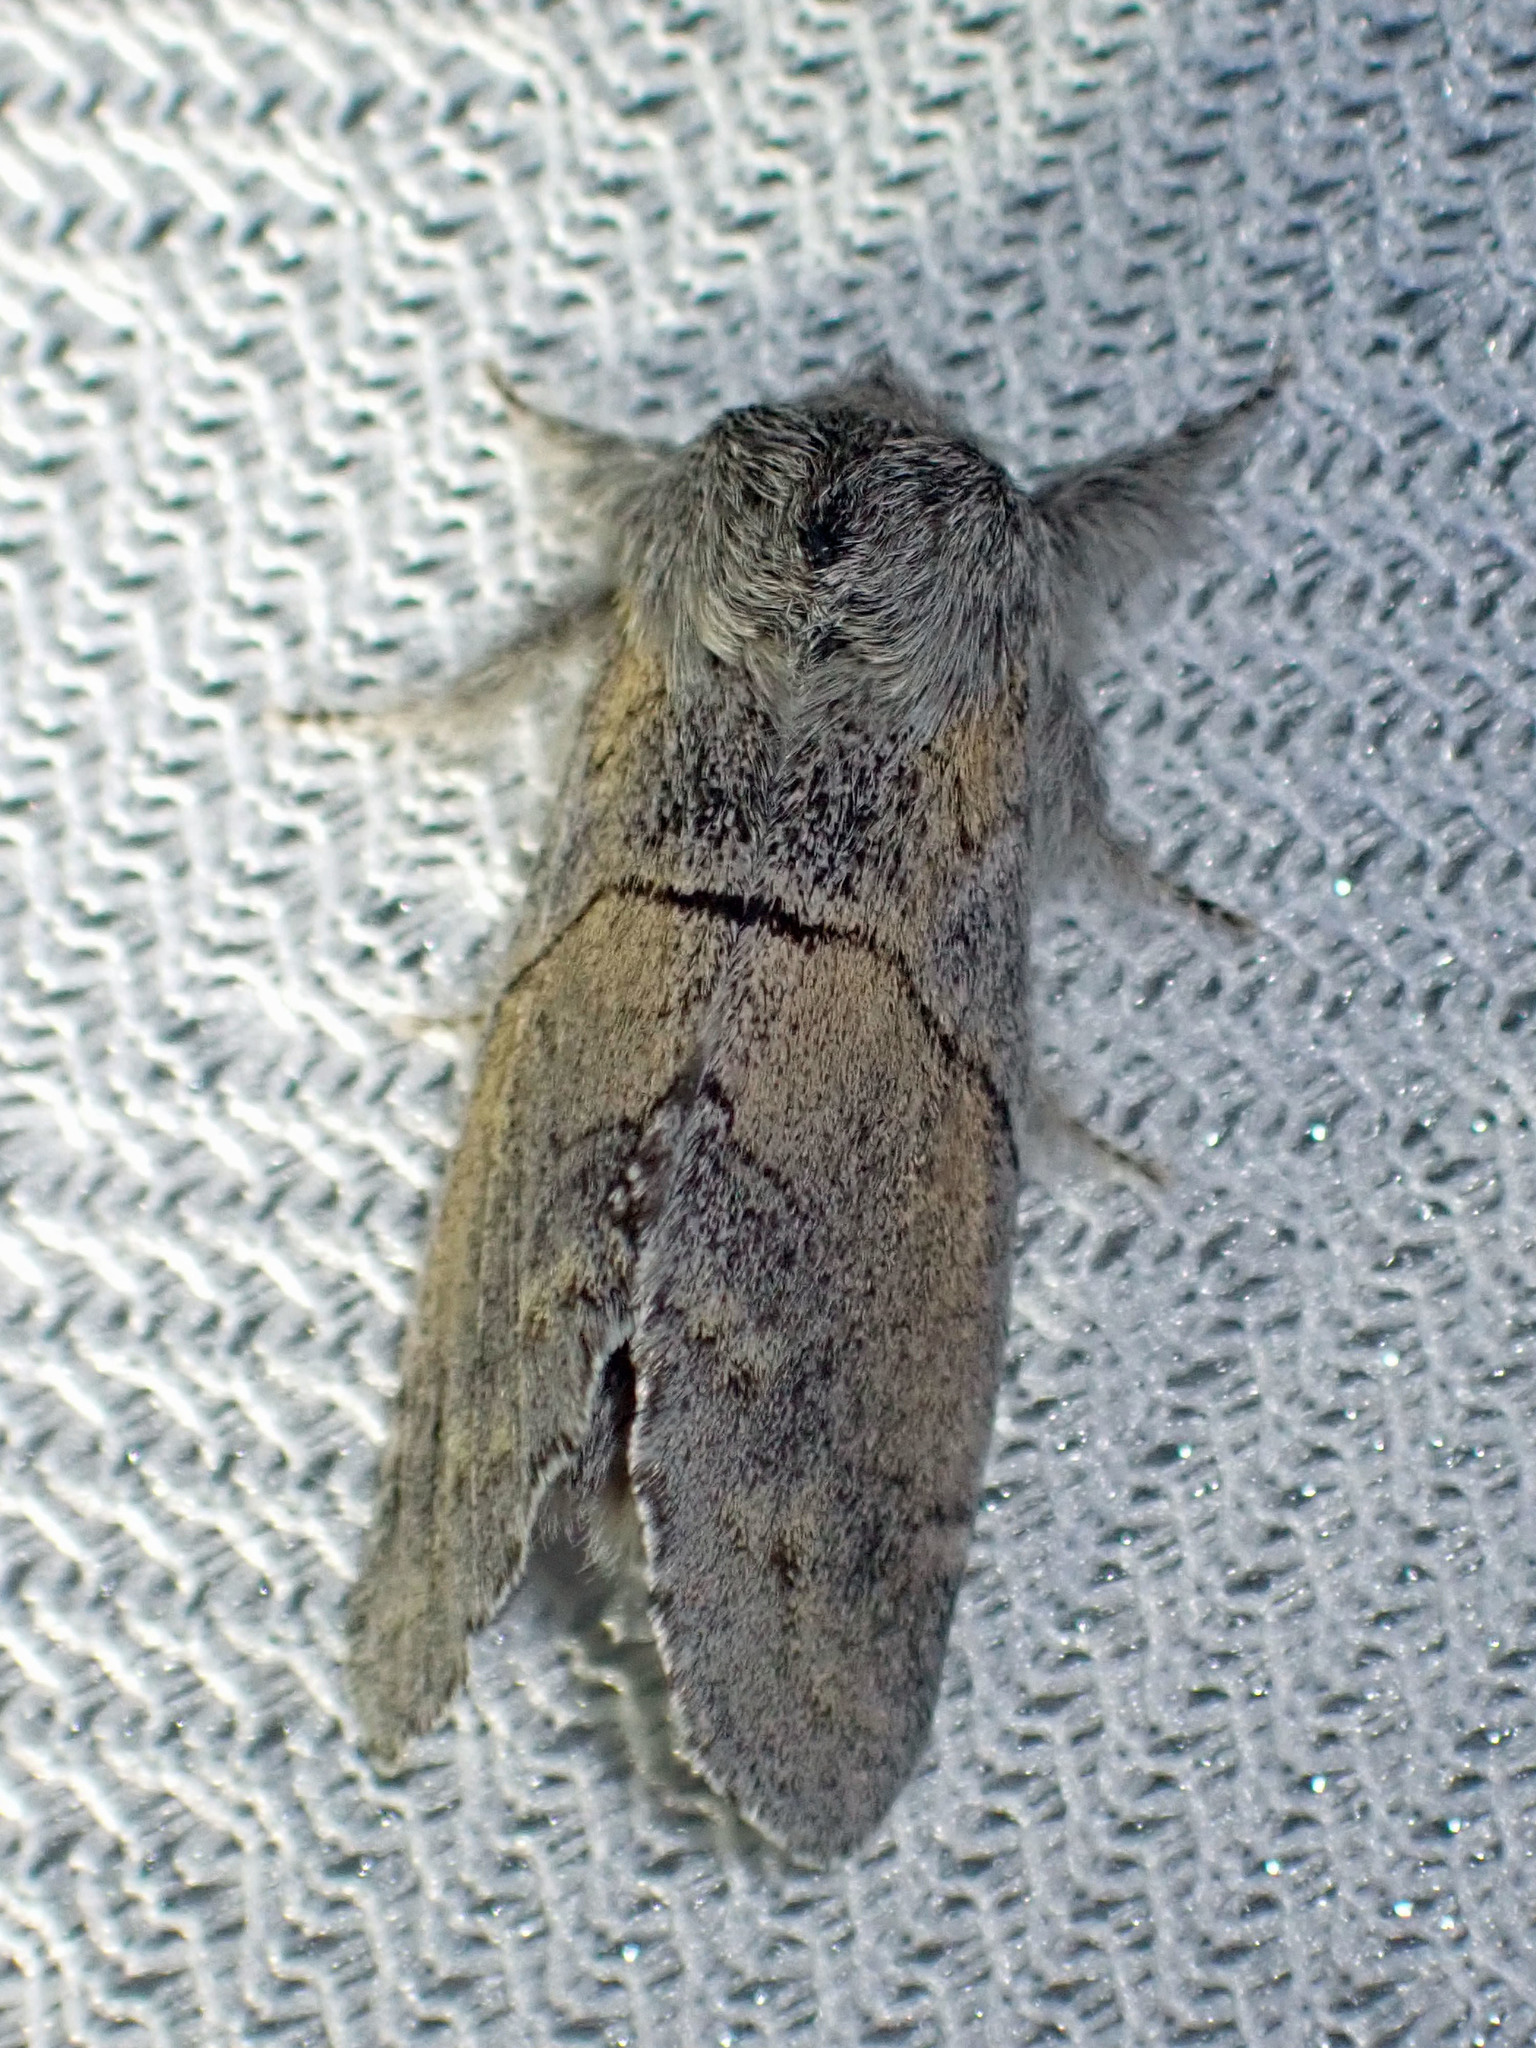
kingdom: Animalia
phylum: Arthropoda
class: Insecta
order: Lepidoptera
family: Notodontidae
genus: Gluphisia
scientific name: Gluphisia lintneri
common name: Lintner's gluphisia moth
